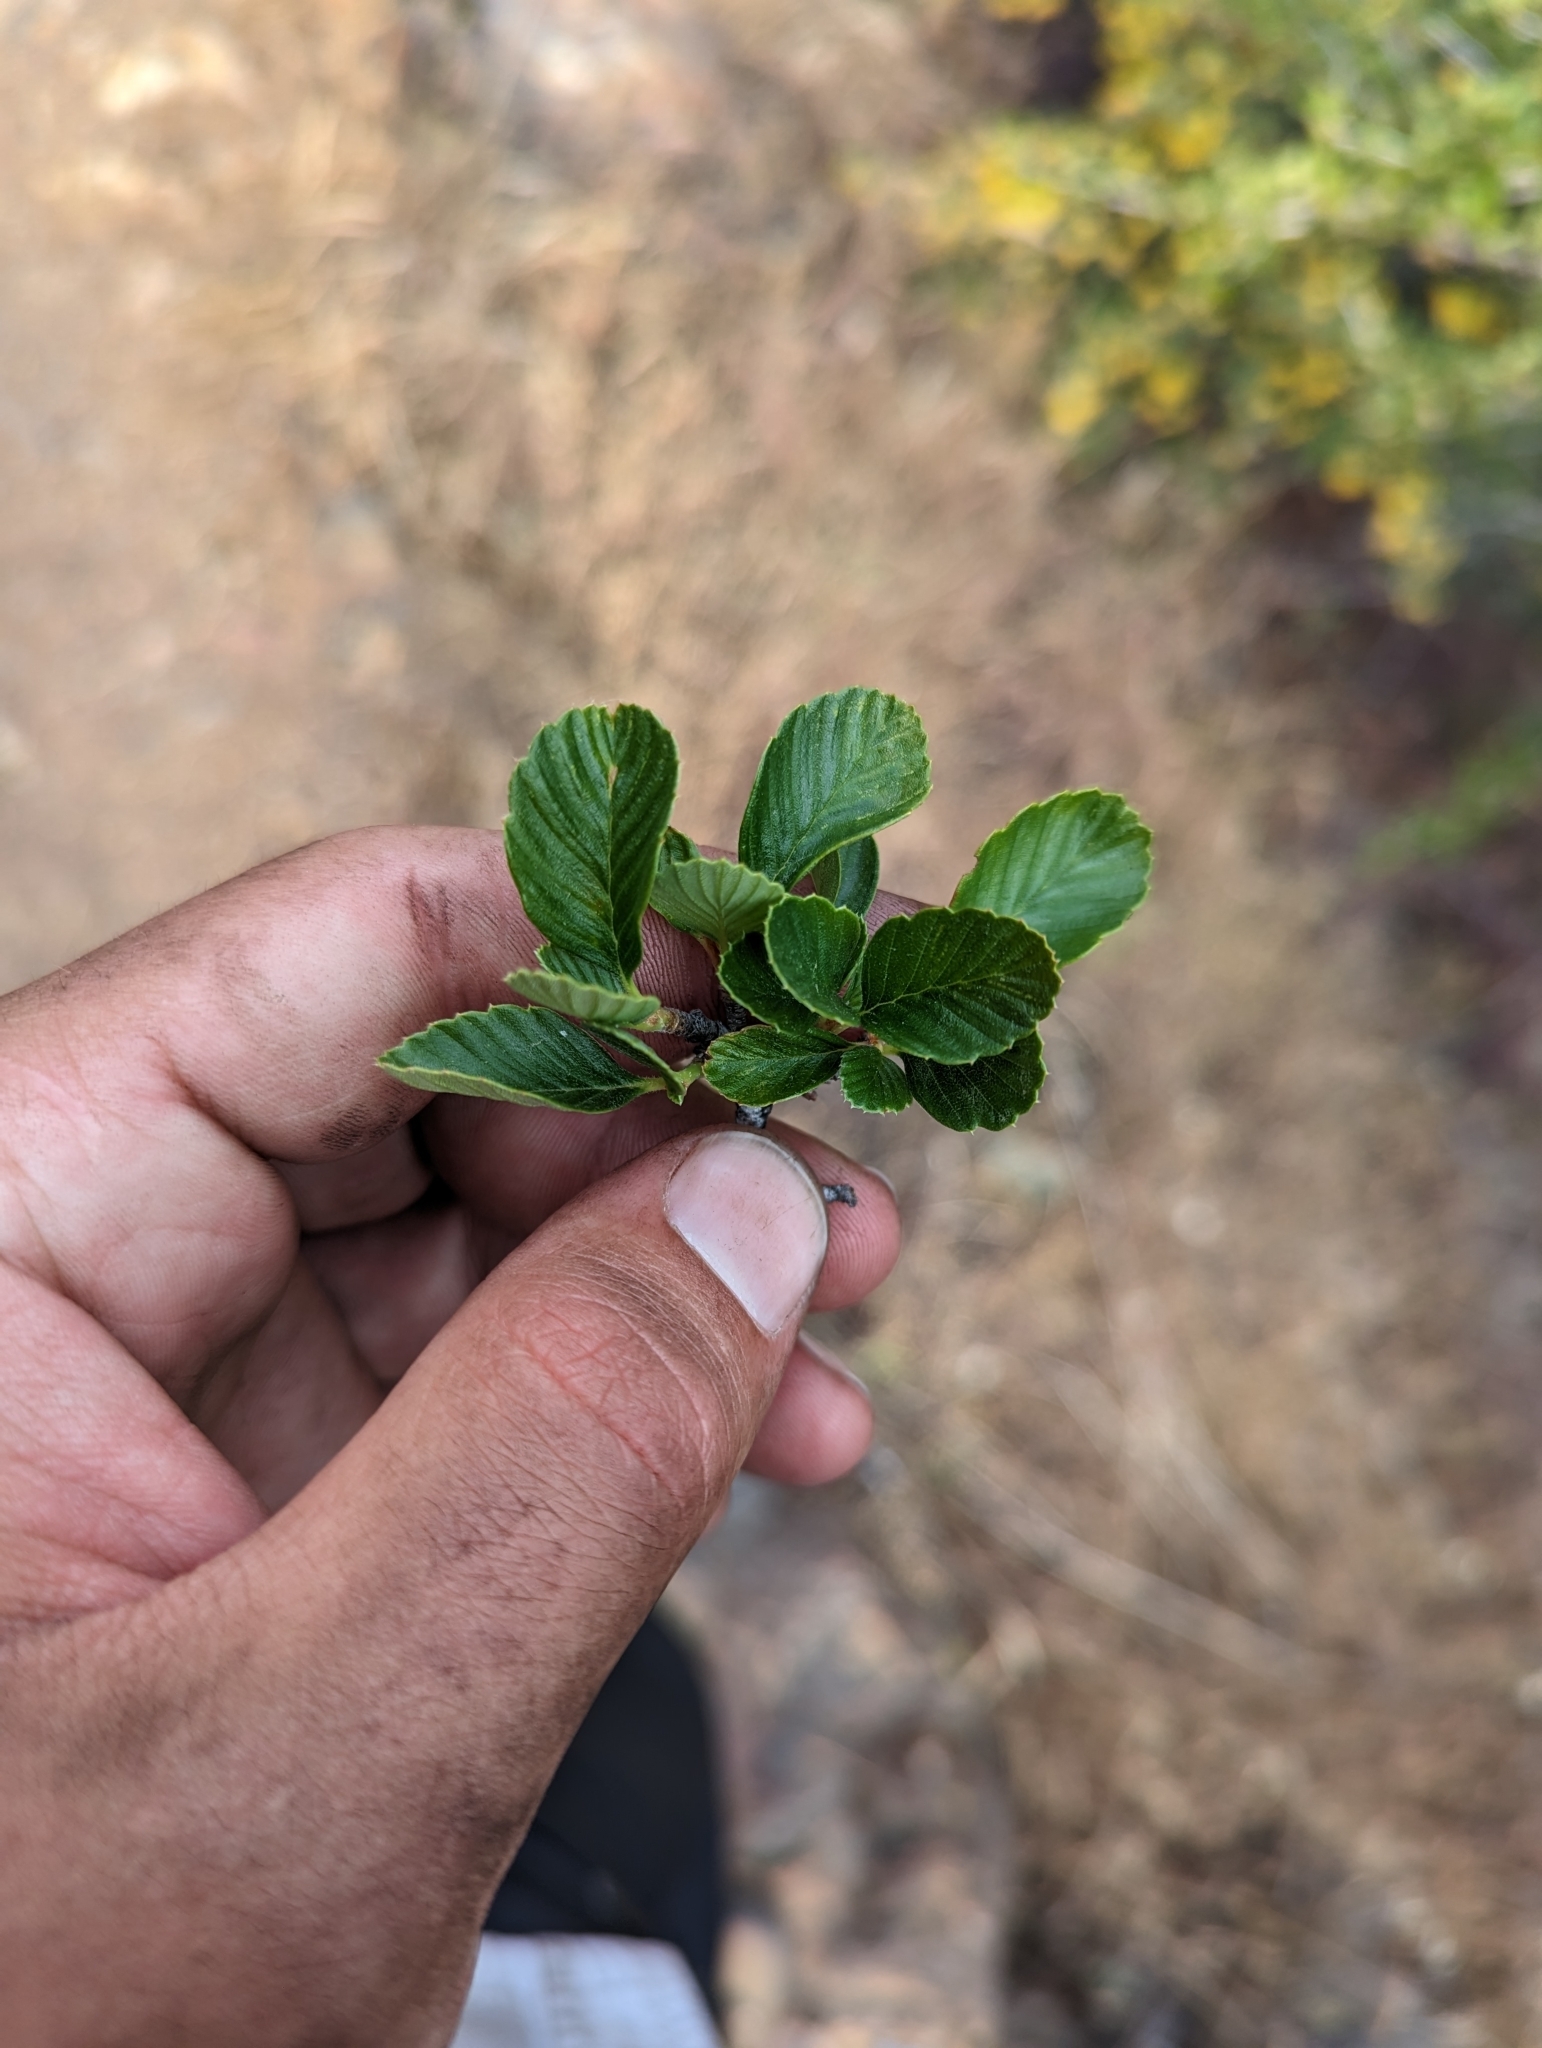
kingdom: Plantae
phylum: Tracheophyta
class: Magnoliopsida
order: Rosales
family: Rosaceae
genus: Cercocarpus
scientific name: Cercocarpus betuloides
